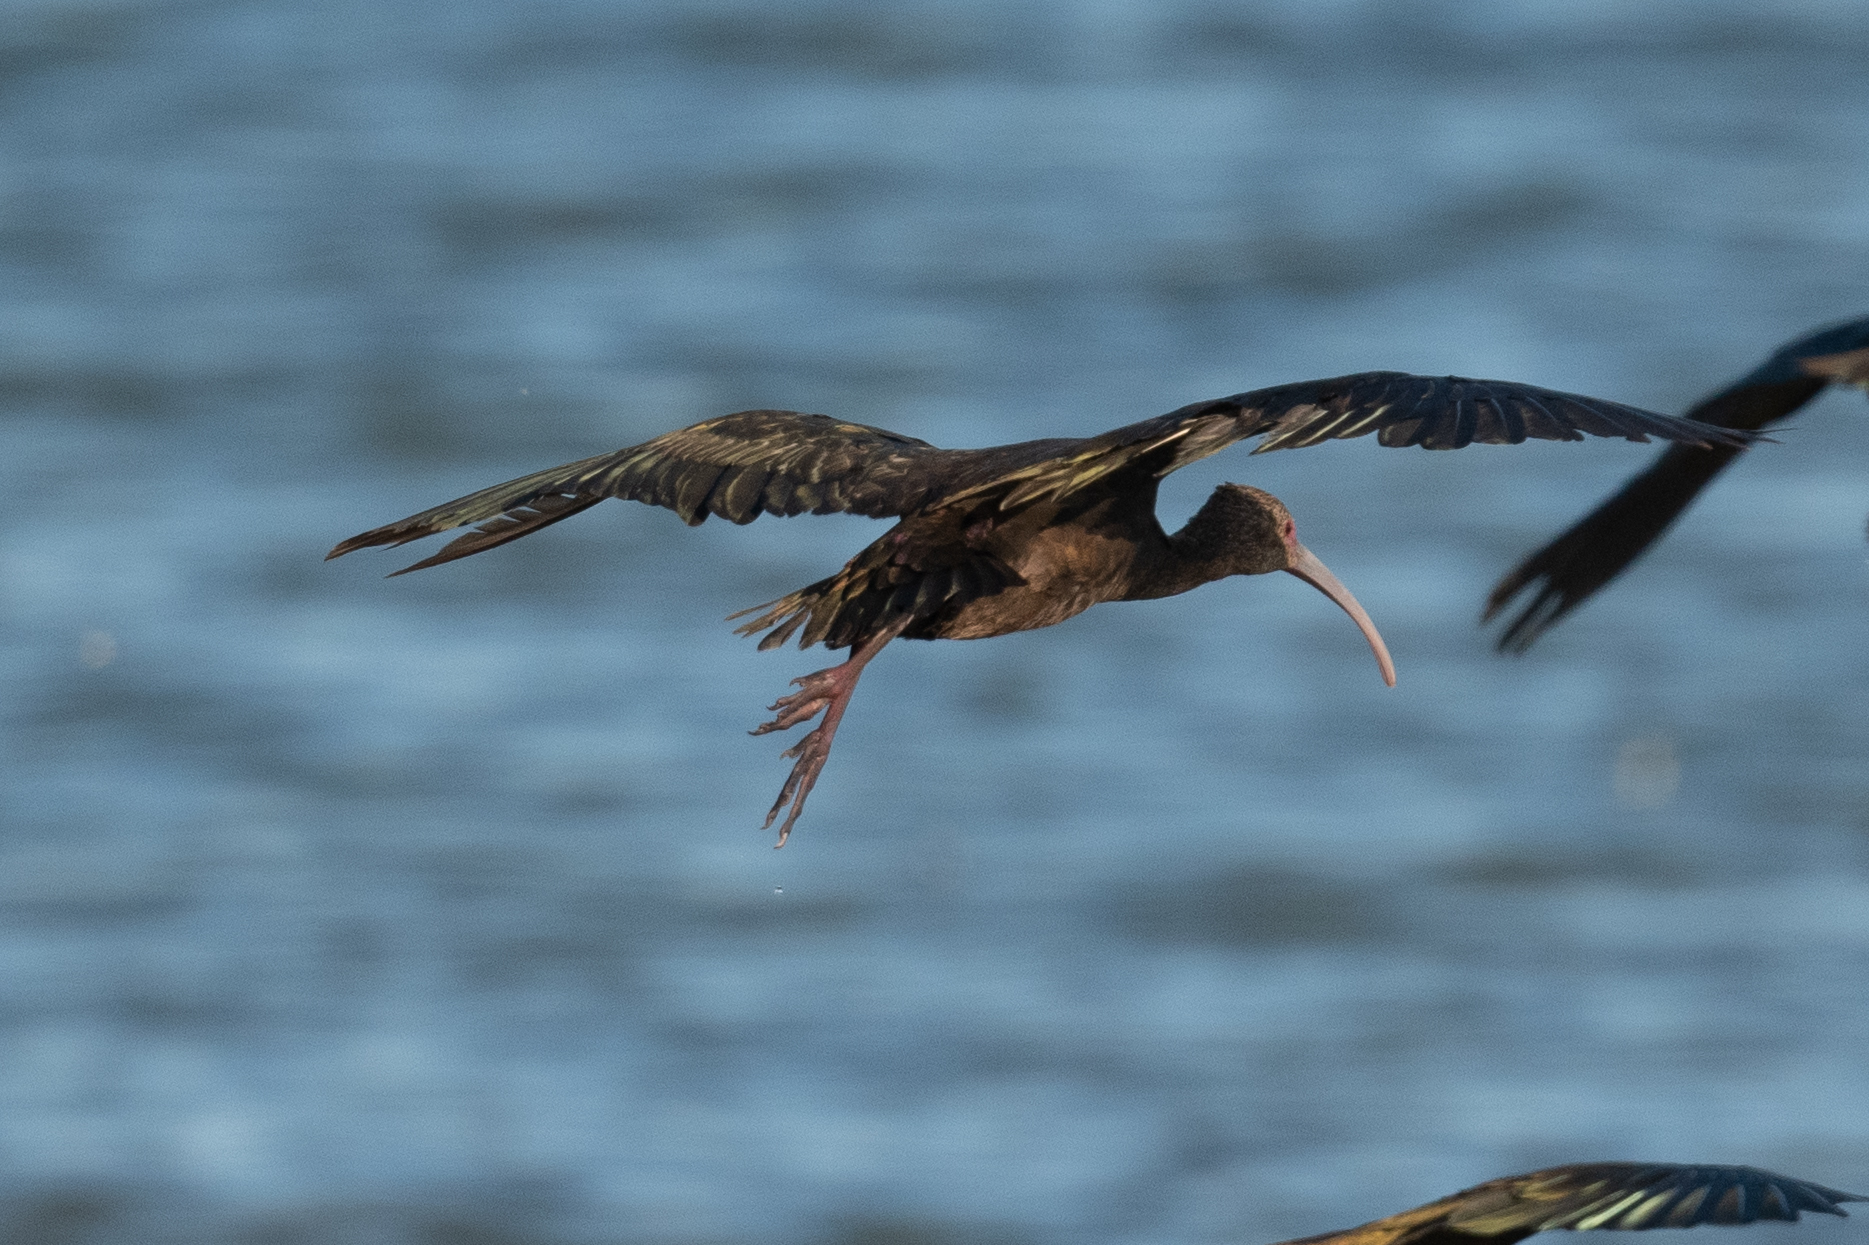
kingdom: Animalia
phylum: Chordata
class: Aves
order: Pelecaniformes
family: Threskiornithidae
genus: Plegadis
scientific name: Plegadis chihi
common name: White-faced ibis
